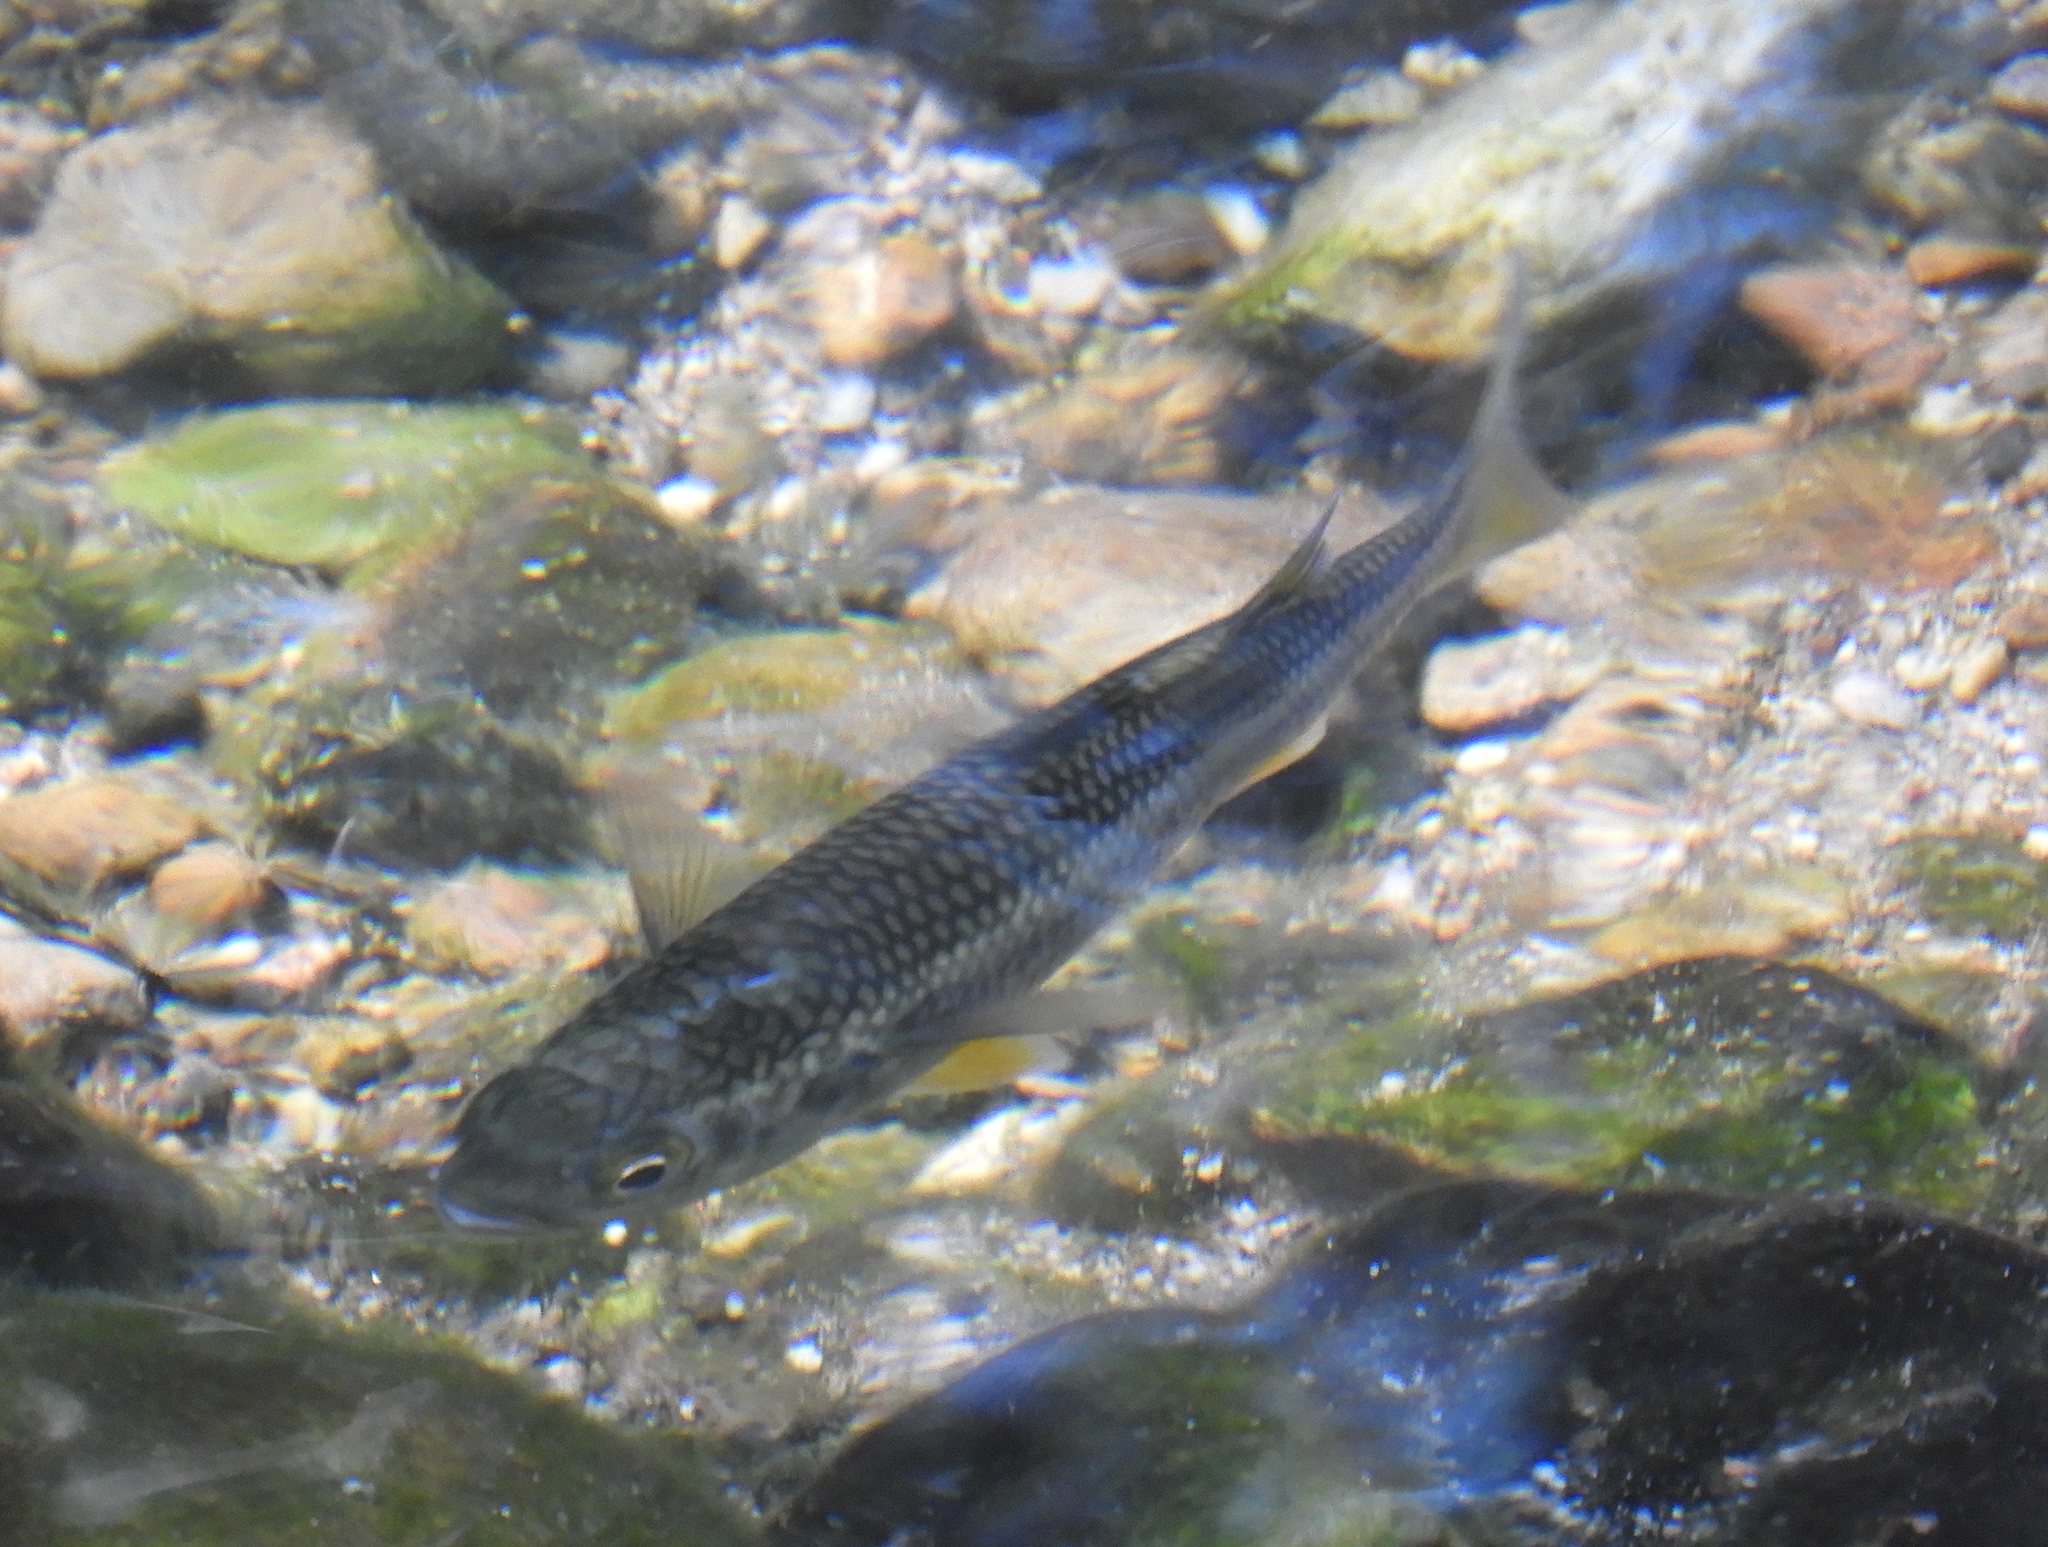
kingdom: Animalia
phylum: Chordata
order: Mugiliformes
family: Mugilidae
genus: Dajaus
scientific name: Dajaus monticola
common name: Mountain mullet
